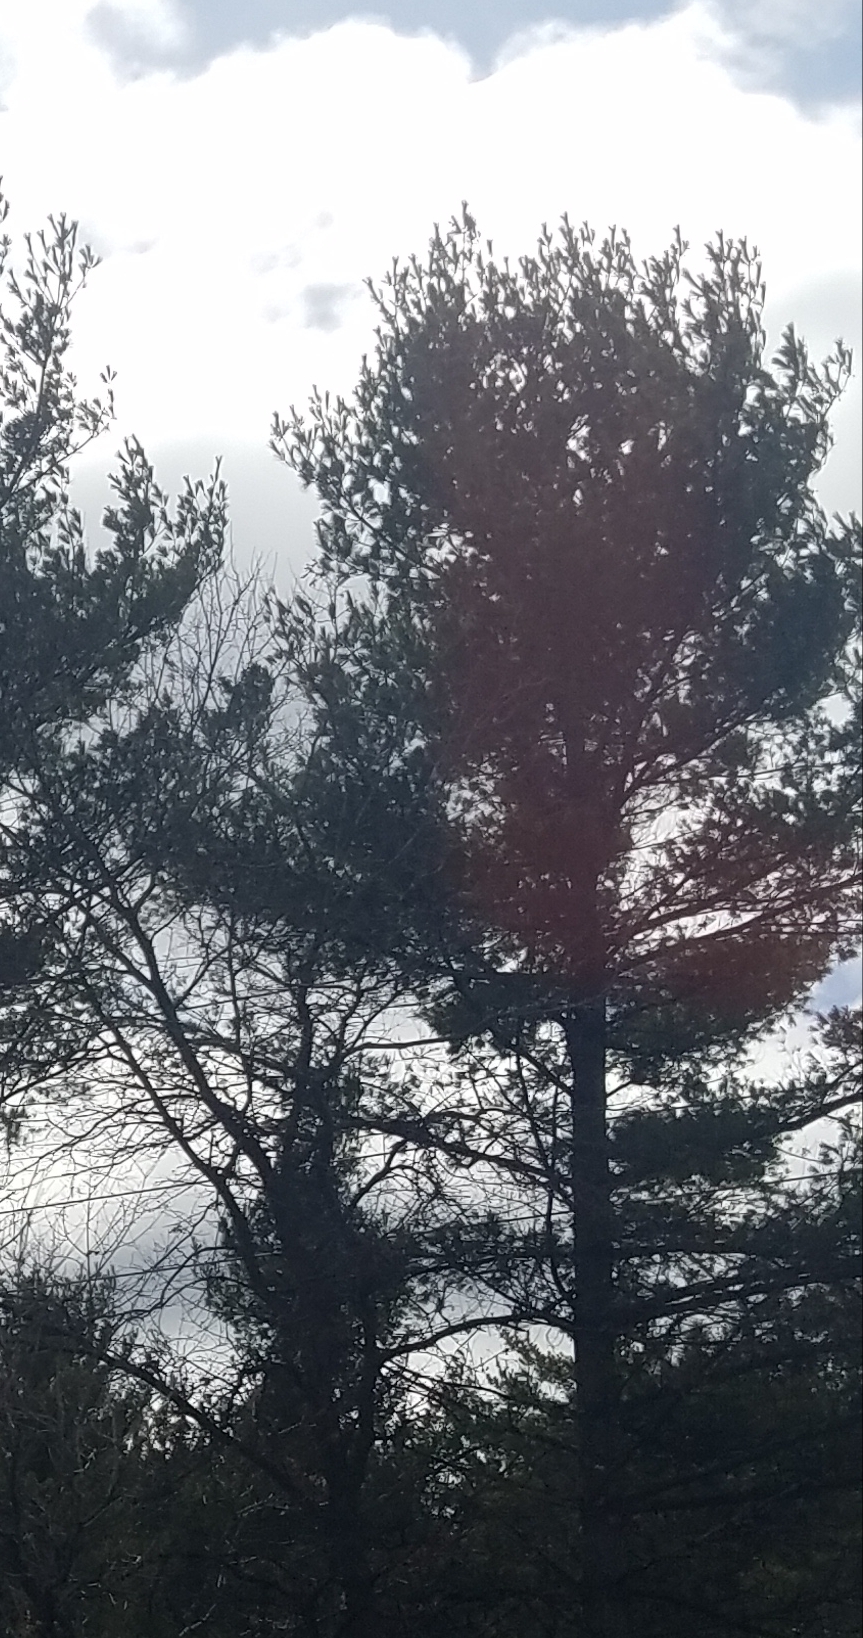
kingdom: Plantae
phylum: Tracheophyta
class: Pinopsida
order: Pinales
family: Pinaceae
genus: Pinus
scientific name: Pinus strobus
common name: Weymouth pine
